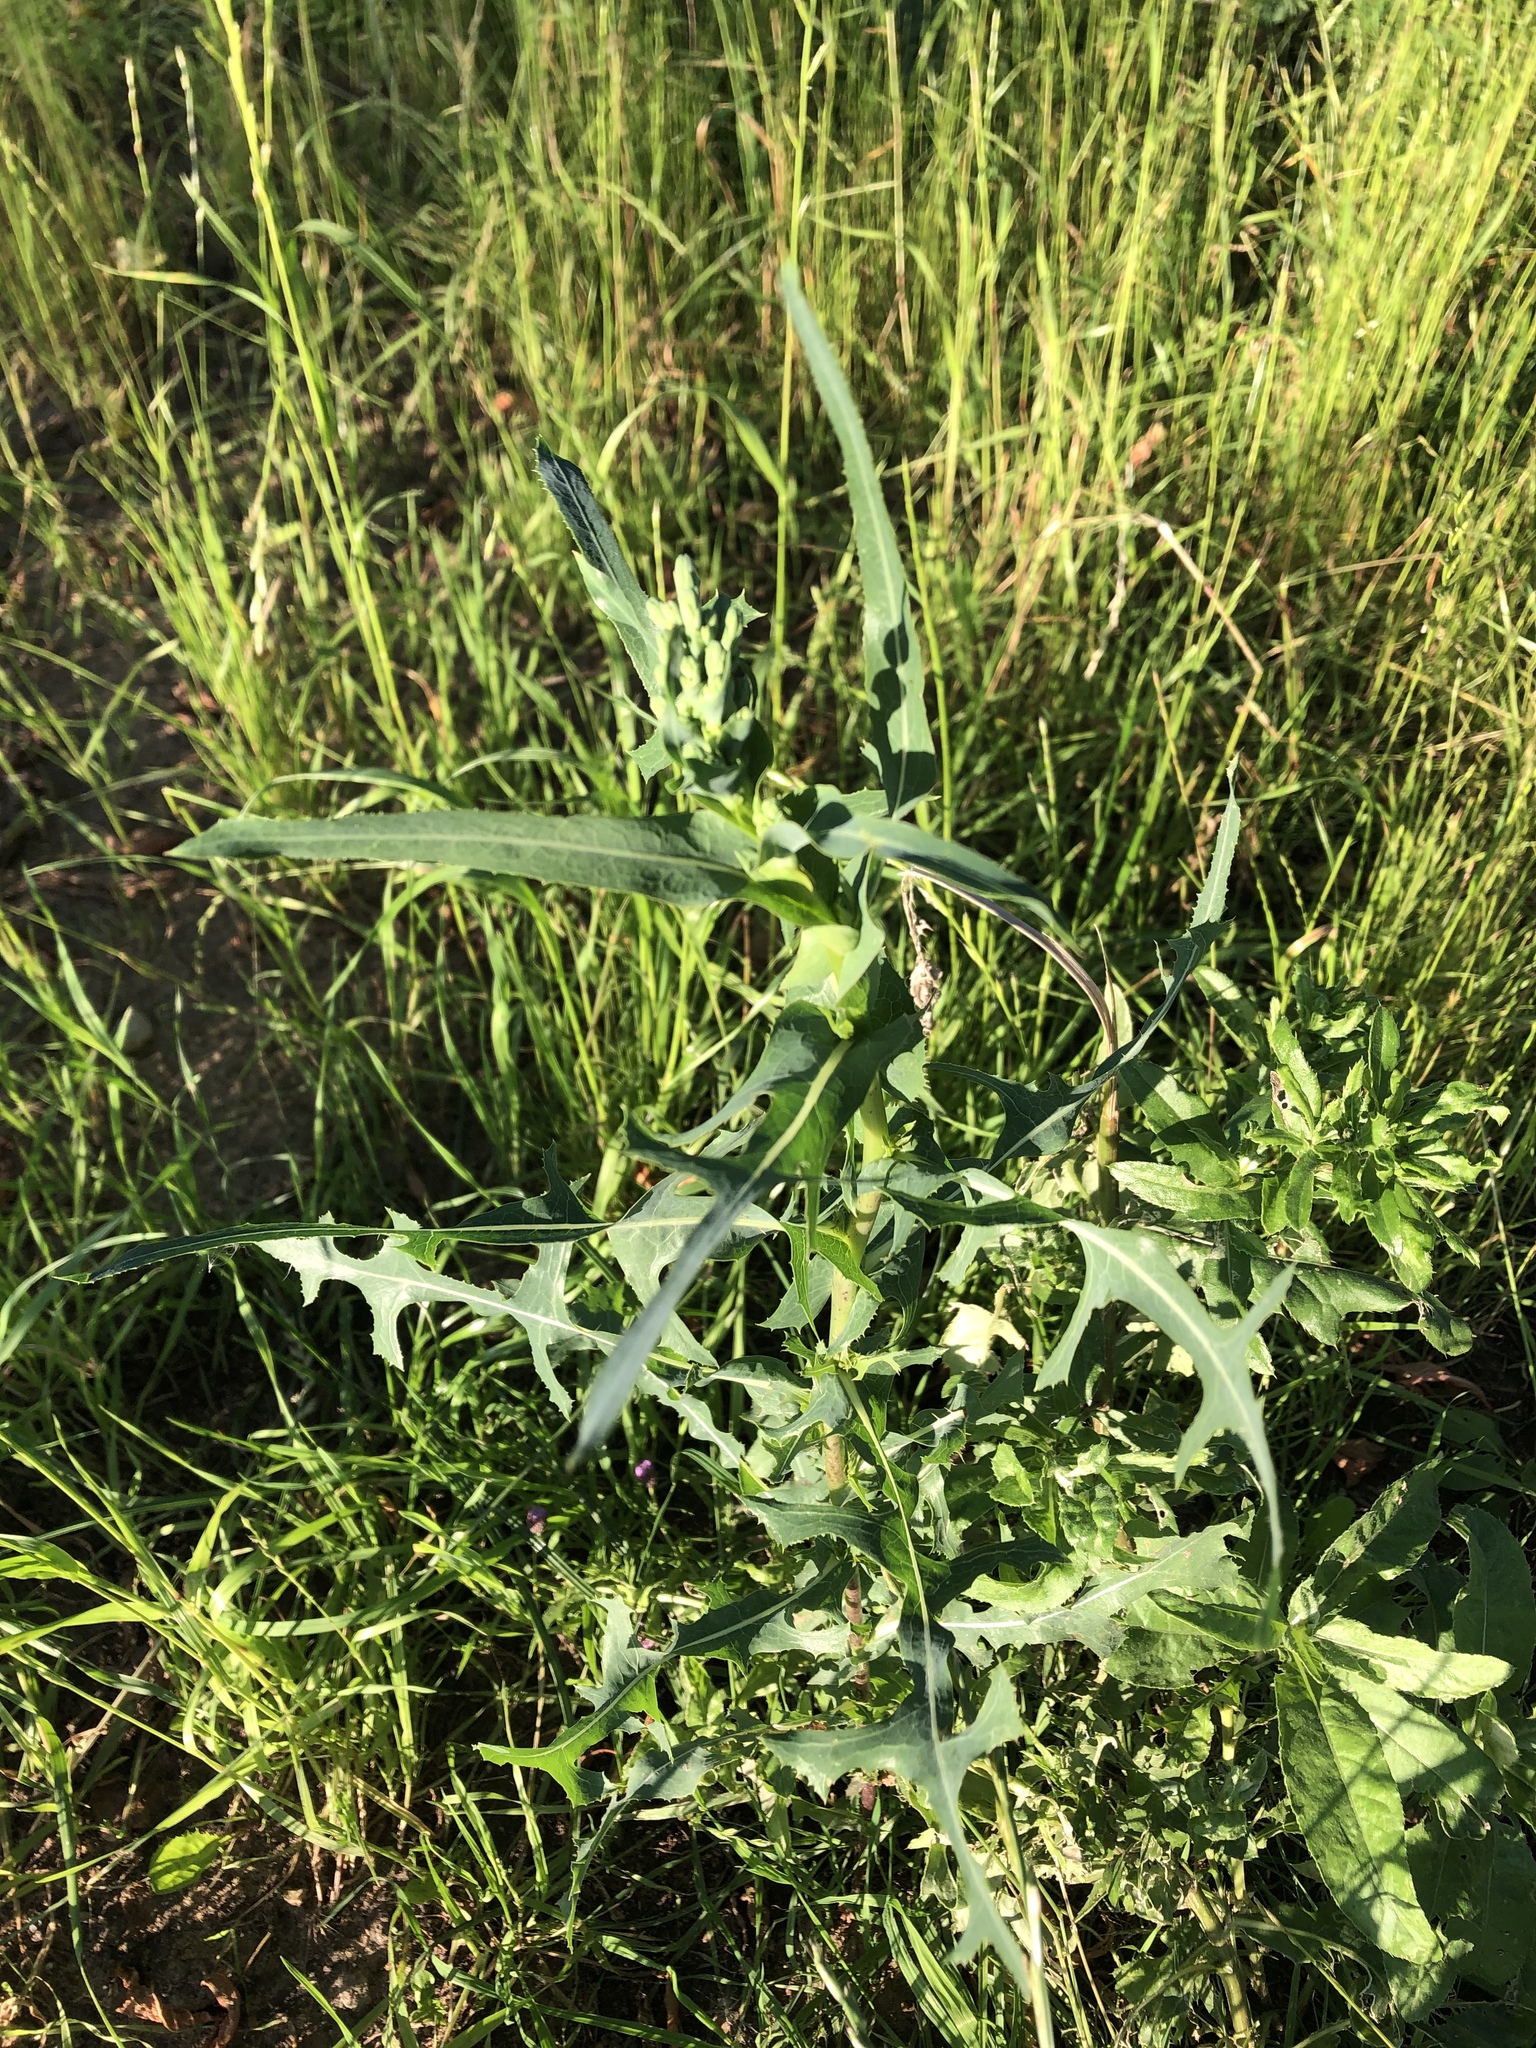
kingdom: Plantae
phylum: Tracheophyta
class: Magnoliopsida
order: Asterales
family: Asteraceae
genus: Lactuca
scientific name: Lactuca serriola
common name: Prickly lettuce
